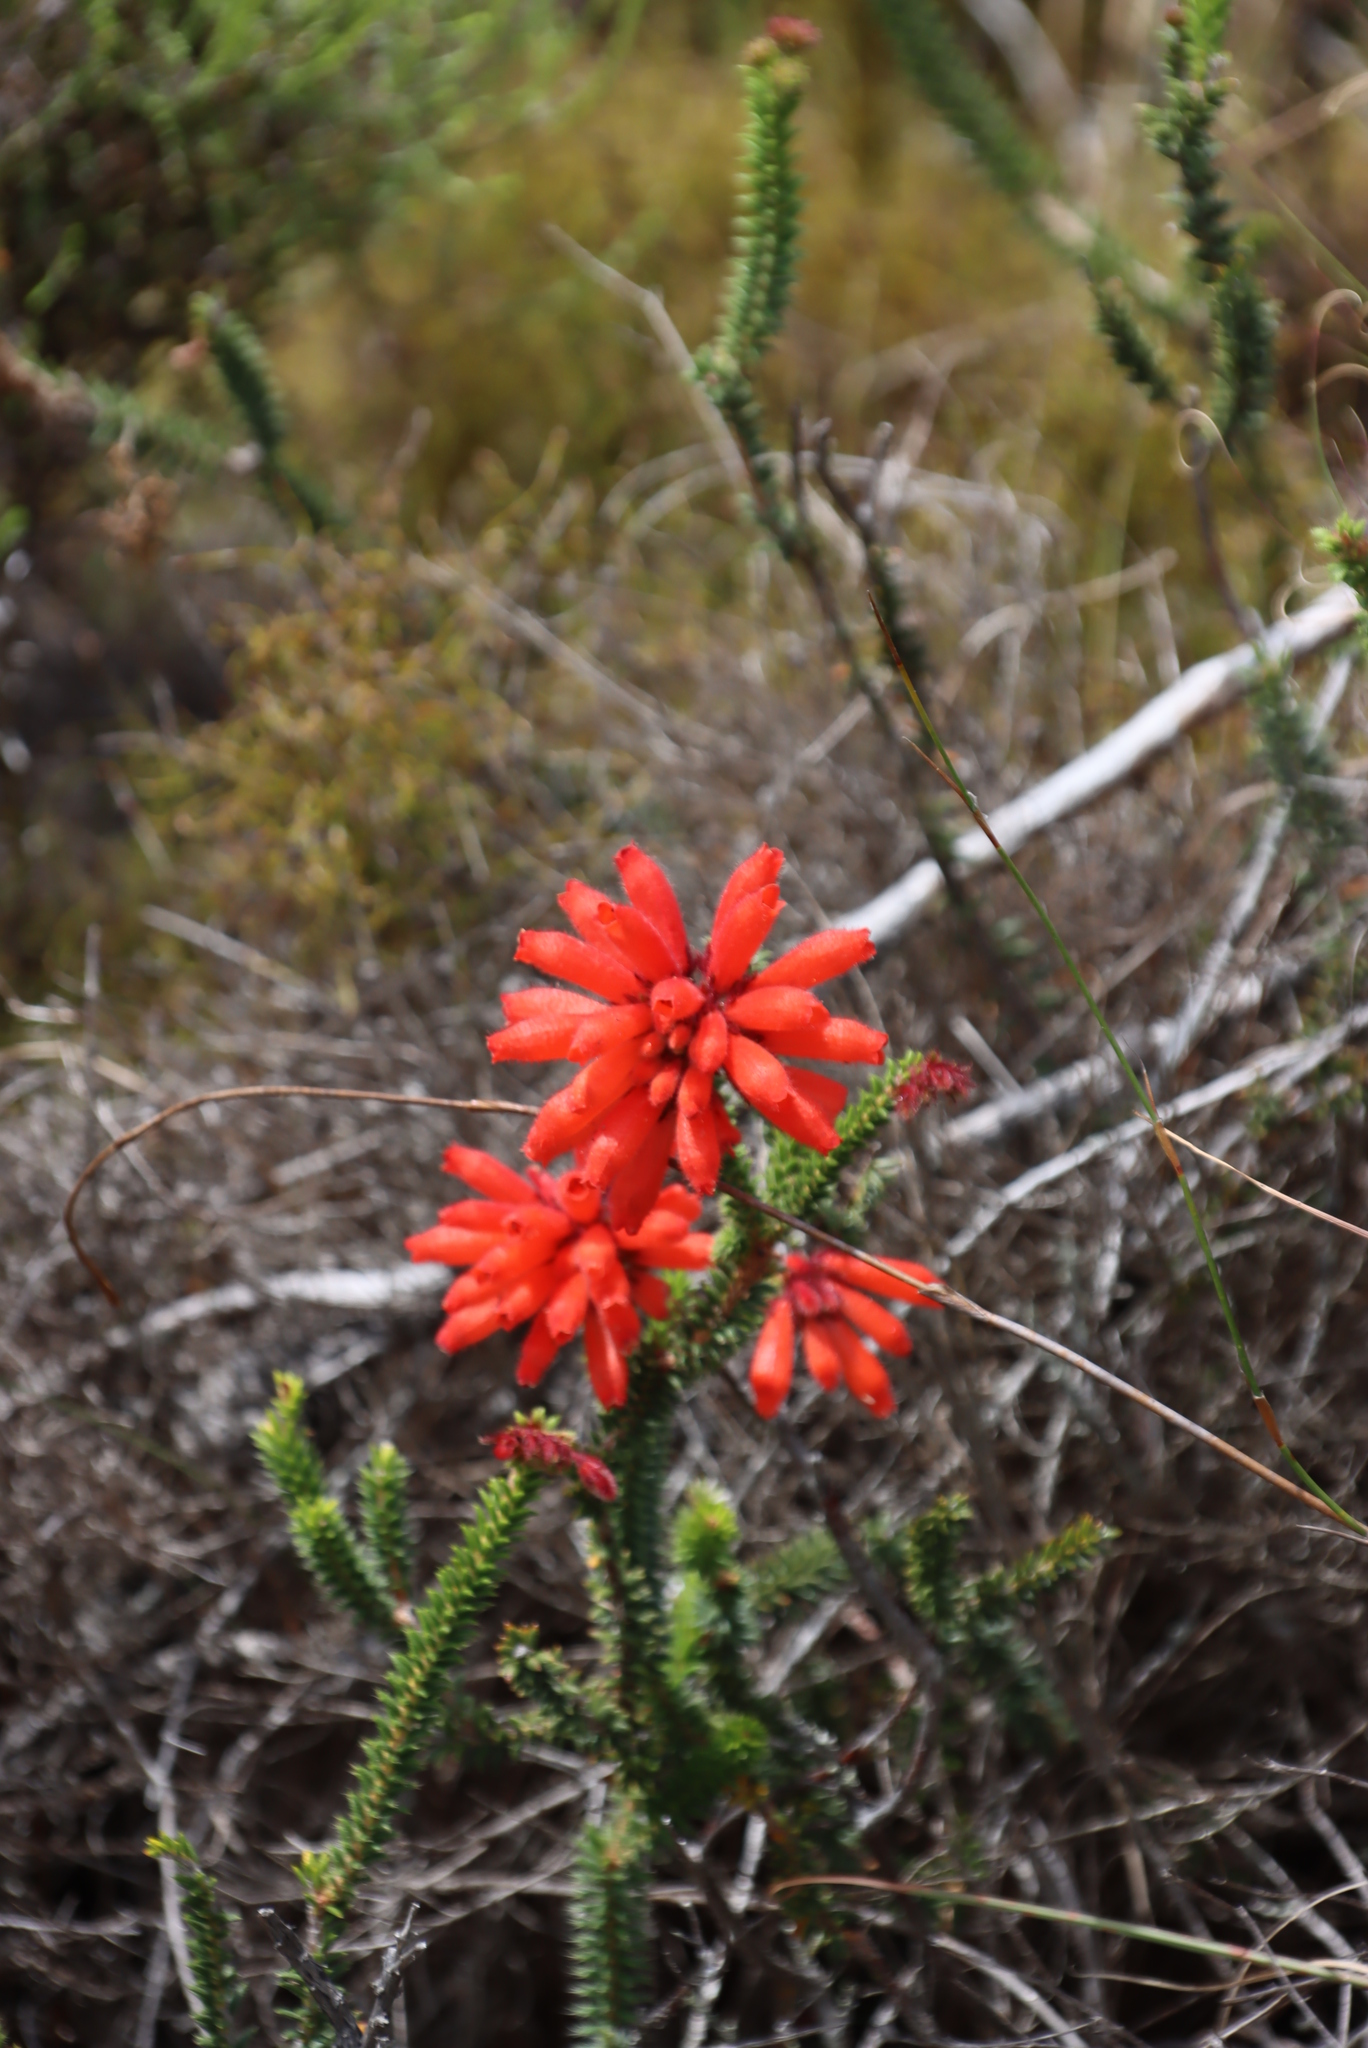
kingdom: Plantae
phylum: Tracheophyta
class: Magnoliopsida
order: Ericales
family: Ericaceae
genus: Erica
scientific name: Erica cerinthoides
